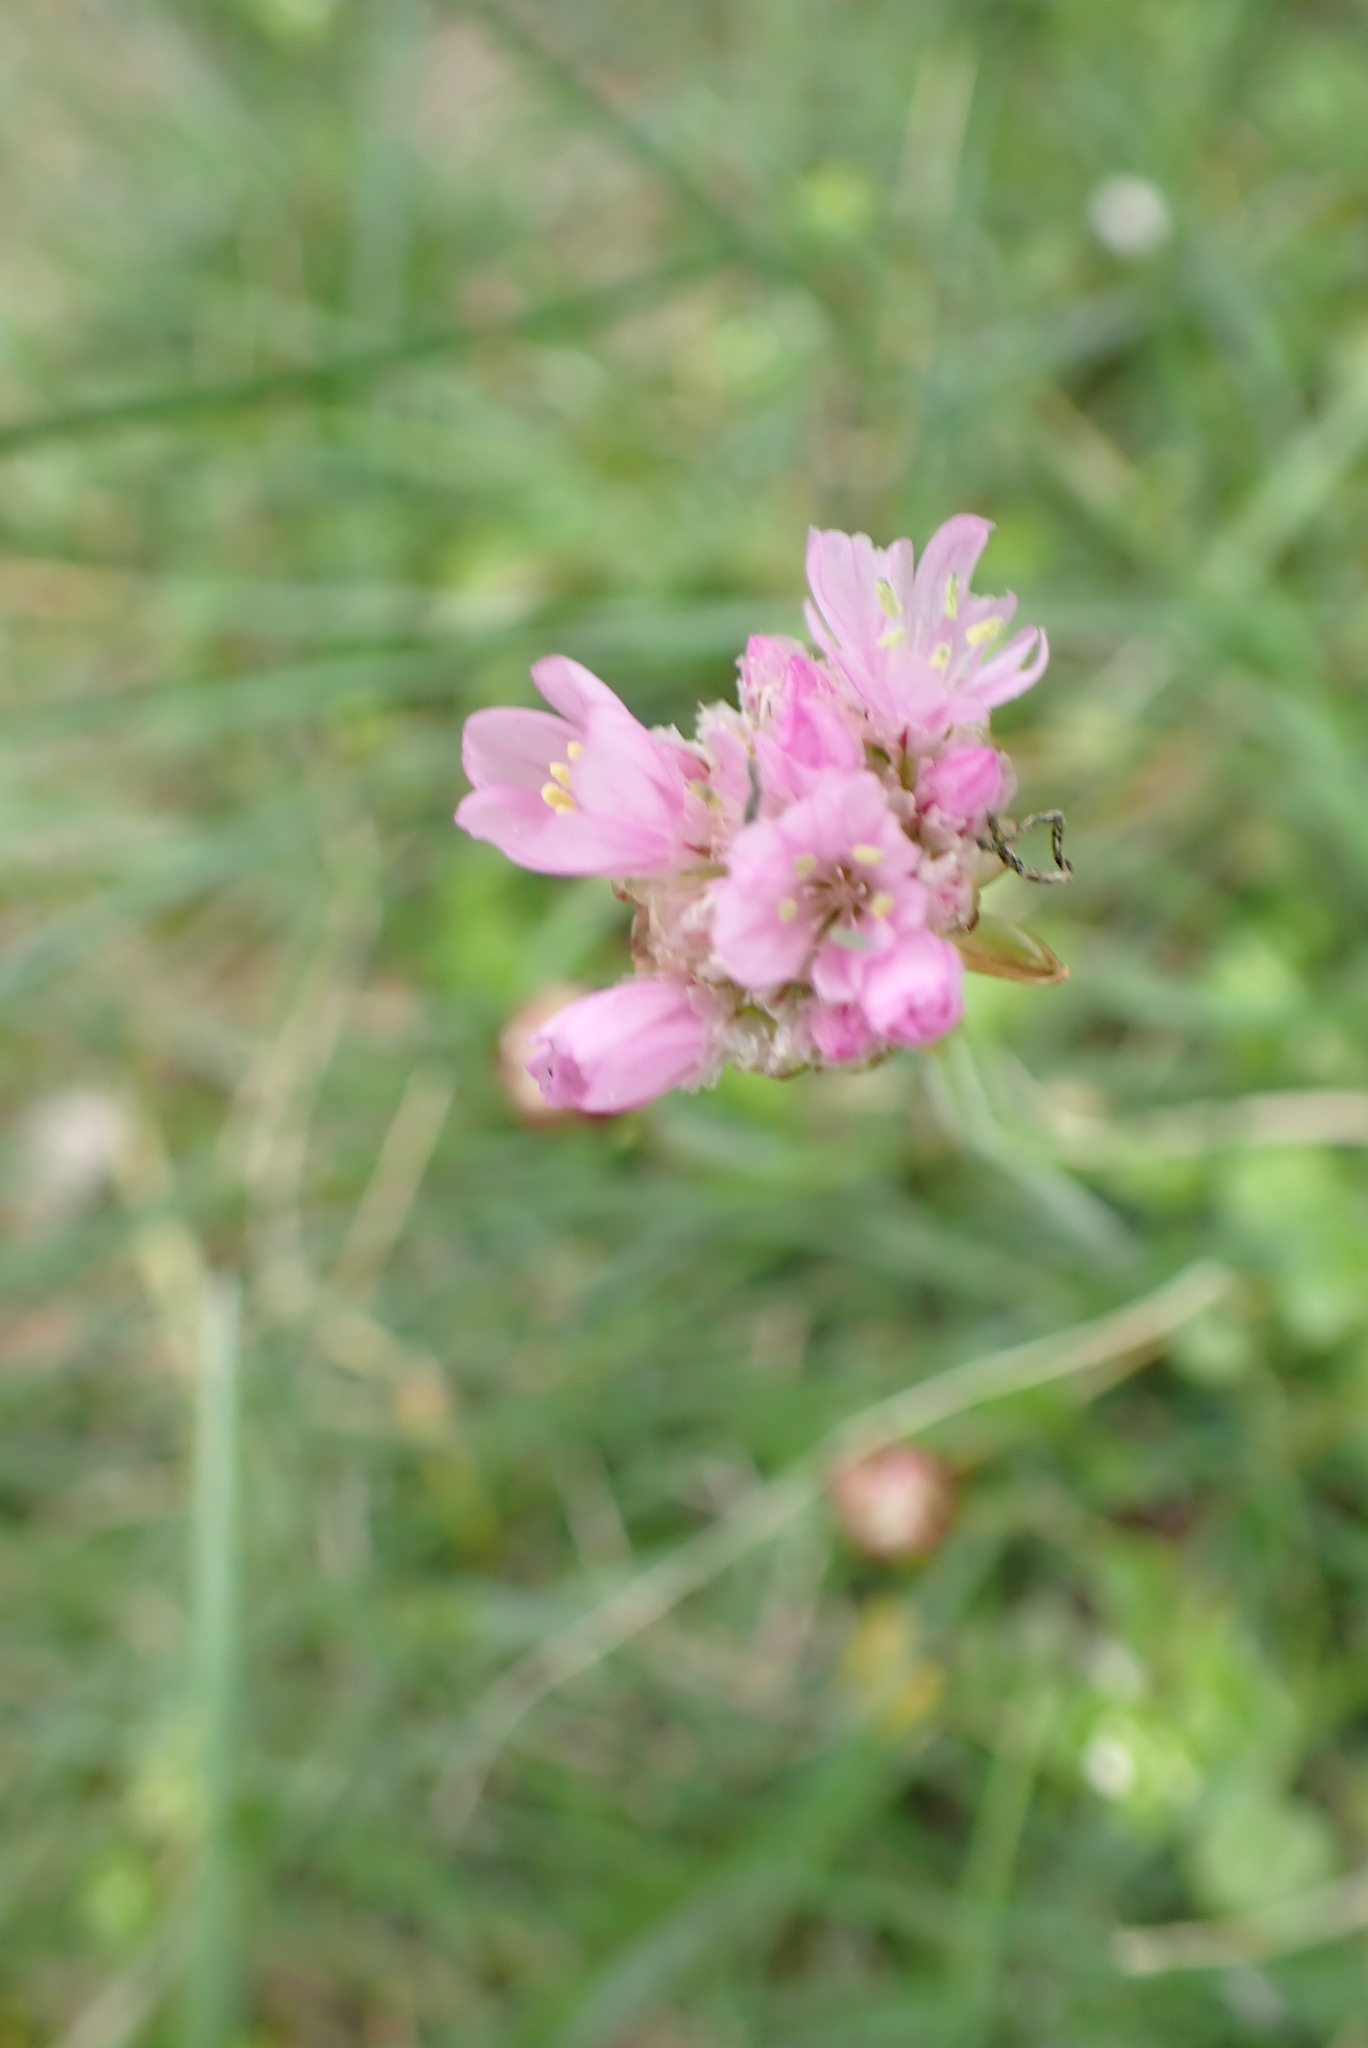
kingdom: Plantae
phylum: Tracheophyta
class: Magnoliopsida
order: Caryophyllales
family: Plumbaginaceae
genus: Armeria
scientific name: Armeria maritima
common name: Thrift
